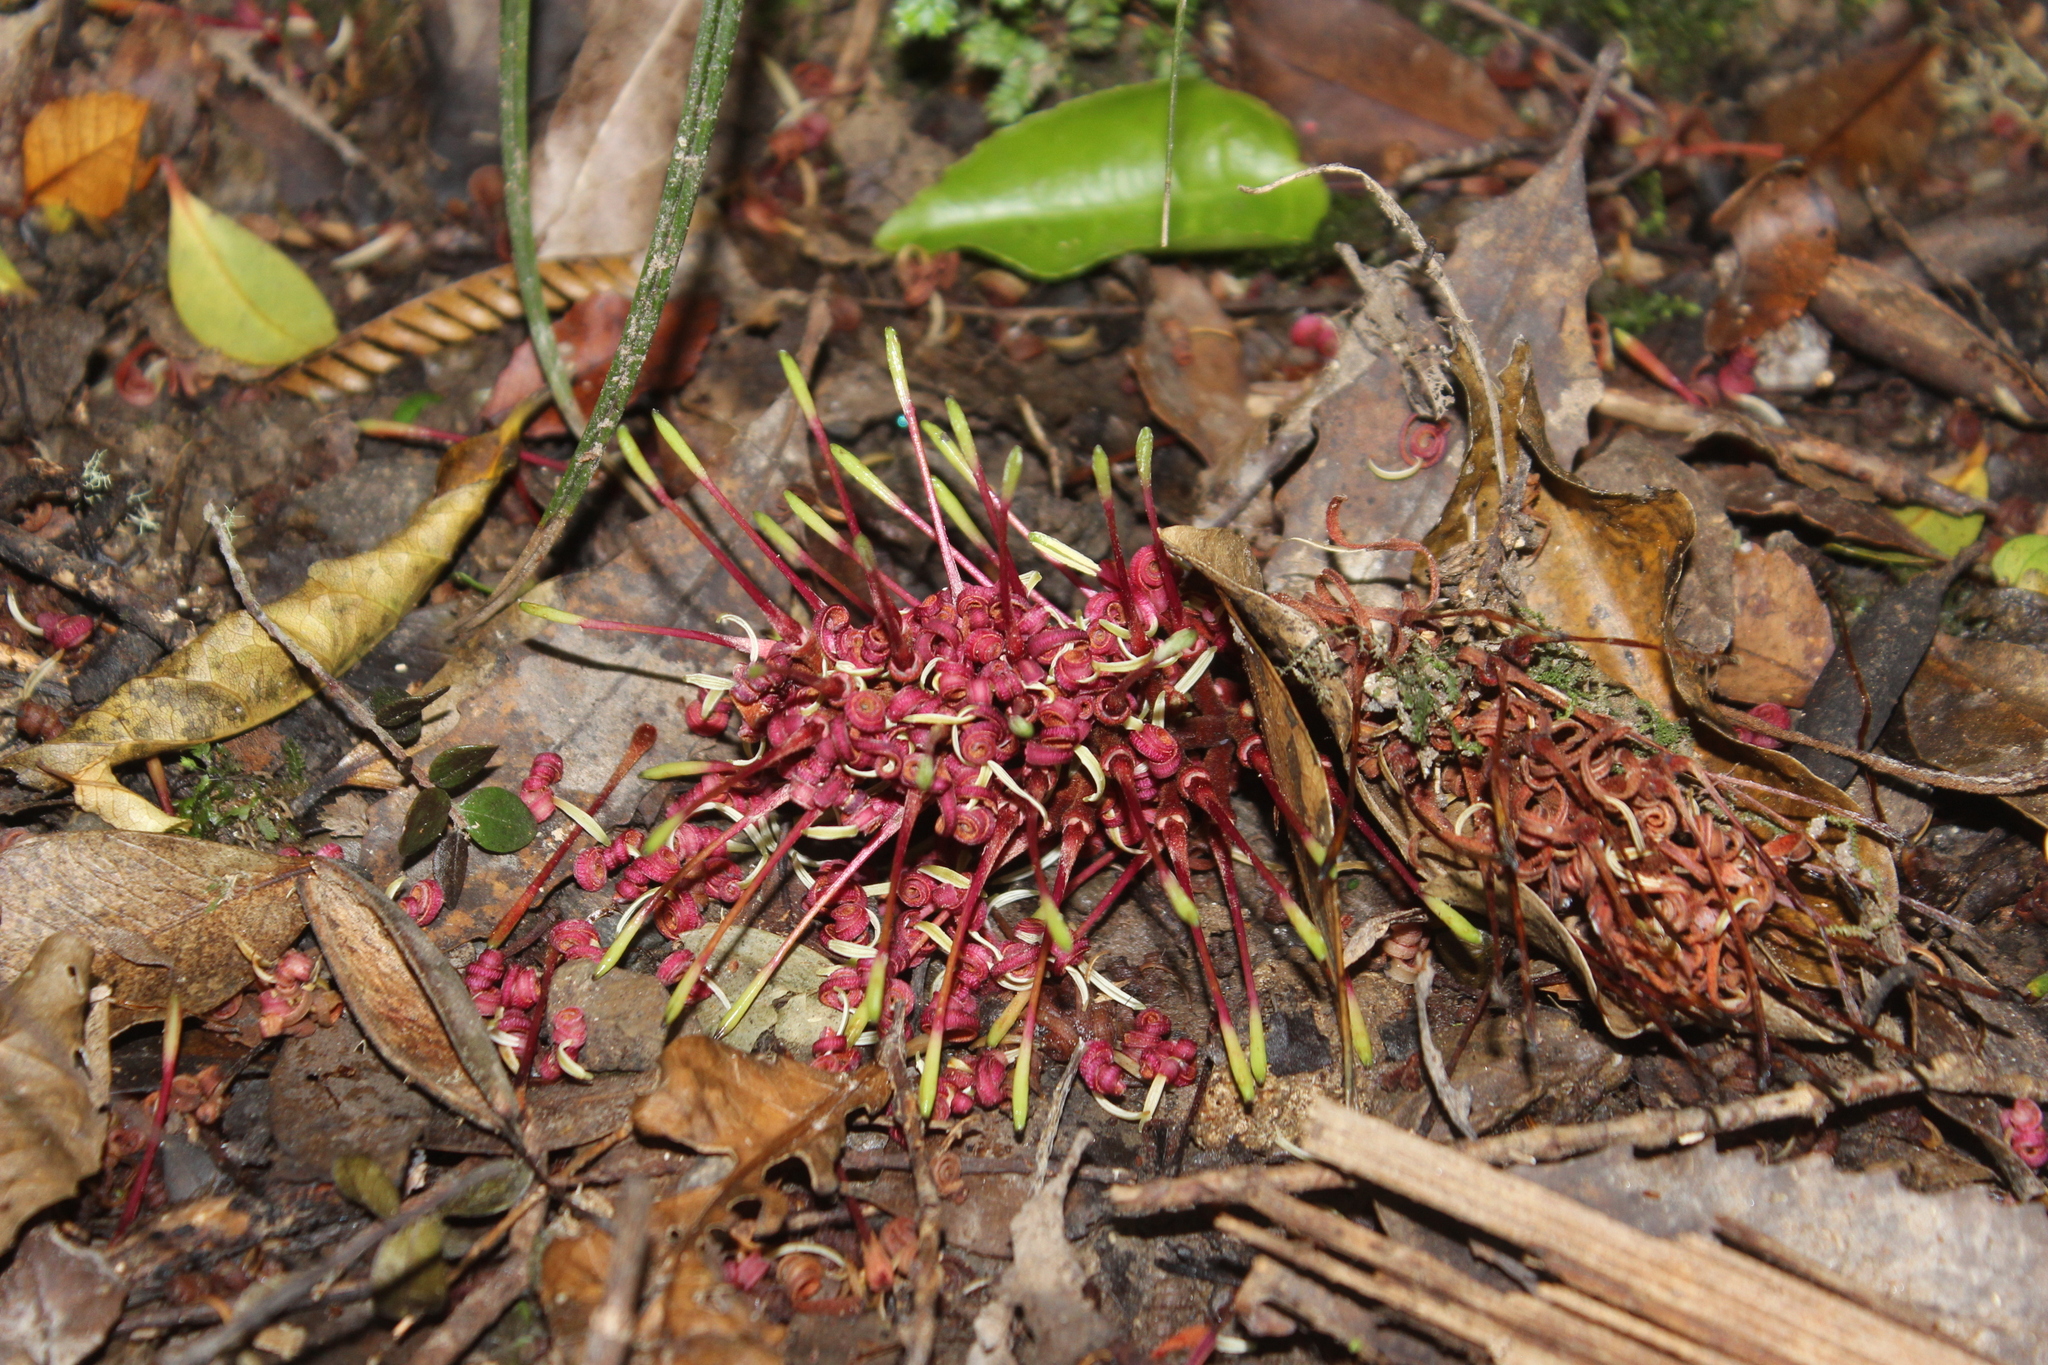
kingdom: Plantae
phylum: Tracheophyta
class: Magnoliopsida
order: Proteales
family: Proteaceae
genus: Knightia
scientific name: Knightia excelsa
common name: New zealand-honeysuckle
